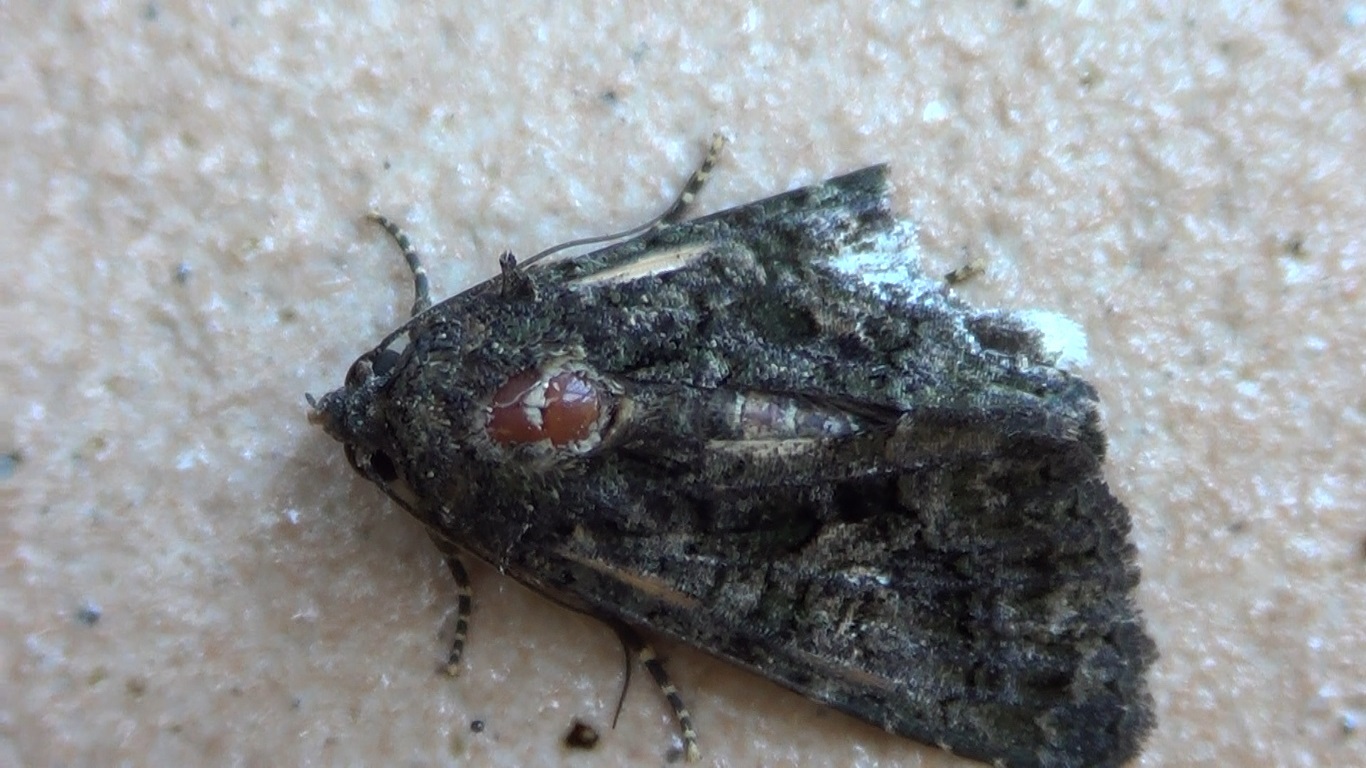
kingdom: Animalia
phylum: Arthropoda
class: Insecta
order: Lepidoptera
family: Noctuidae
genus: Aedia
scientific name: Aedia leucomelas
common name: Sorcerer
